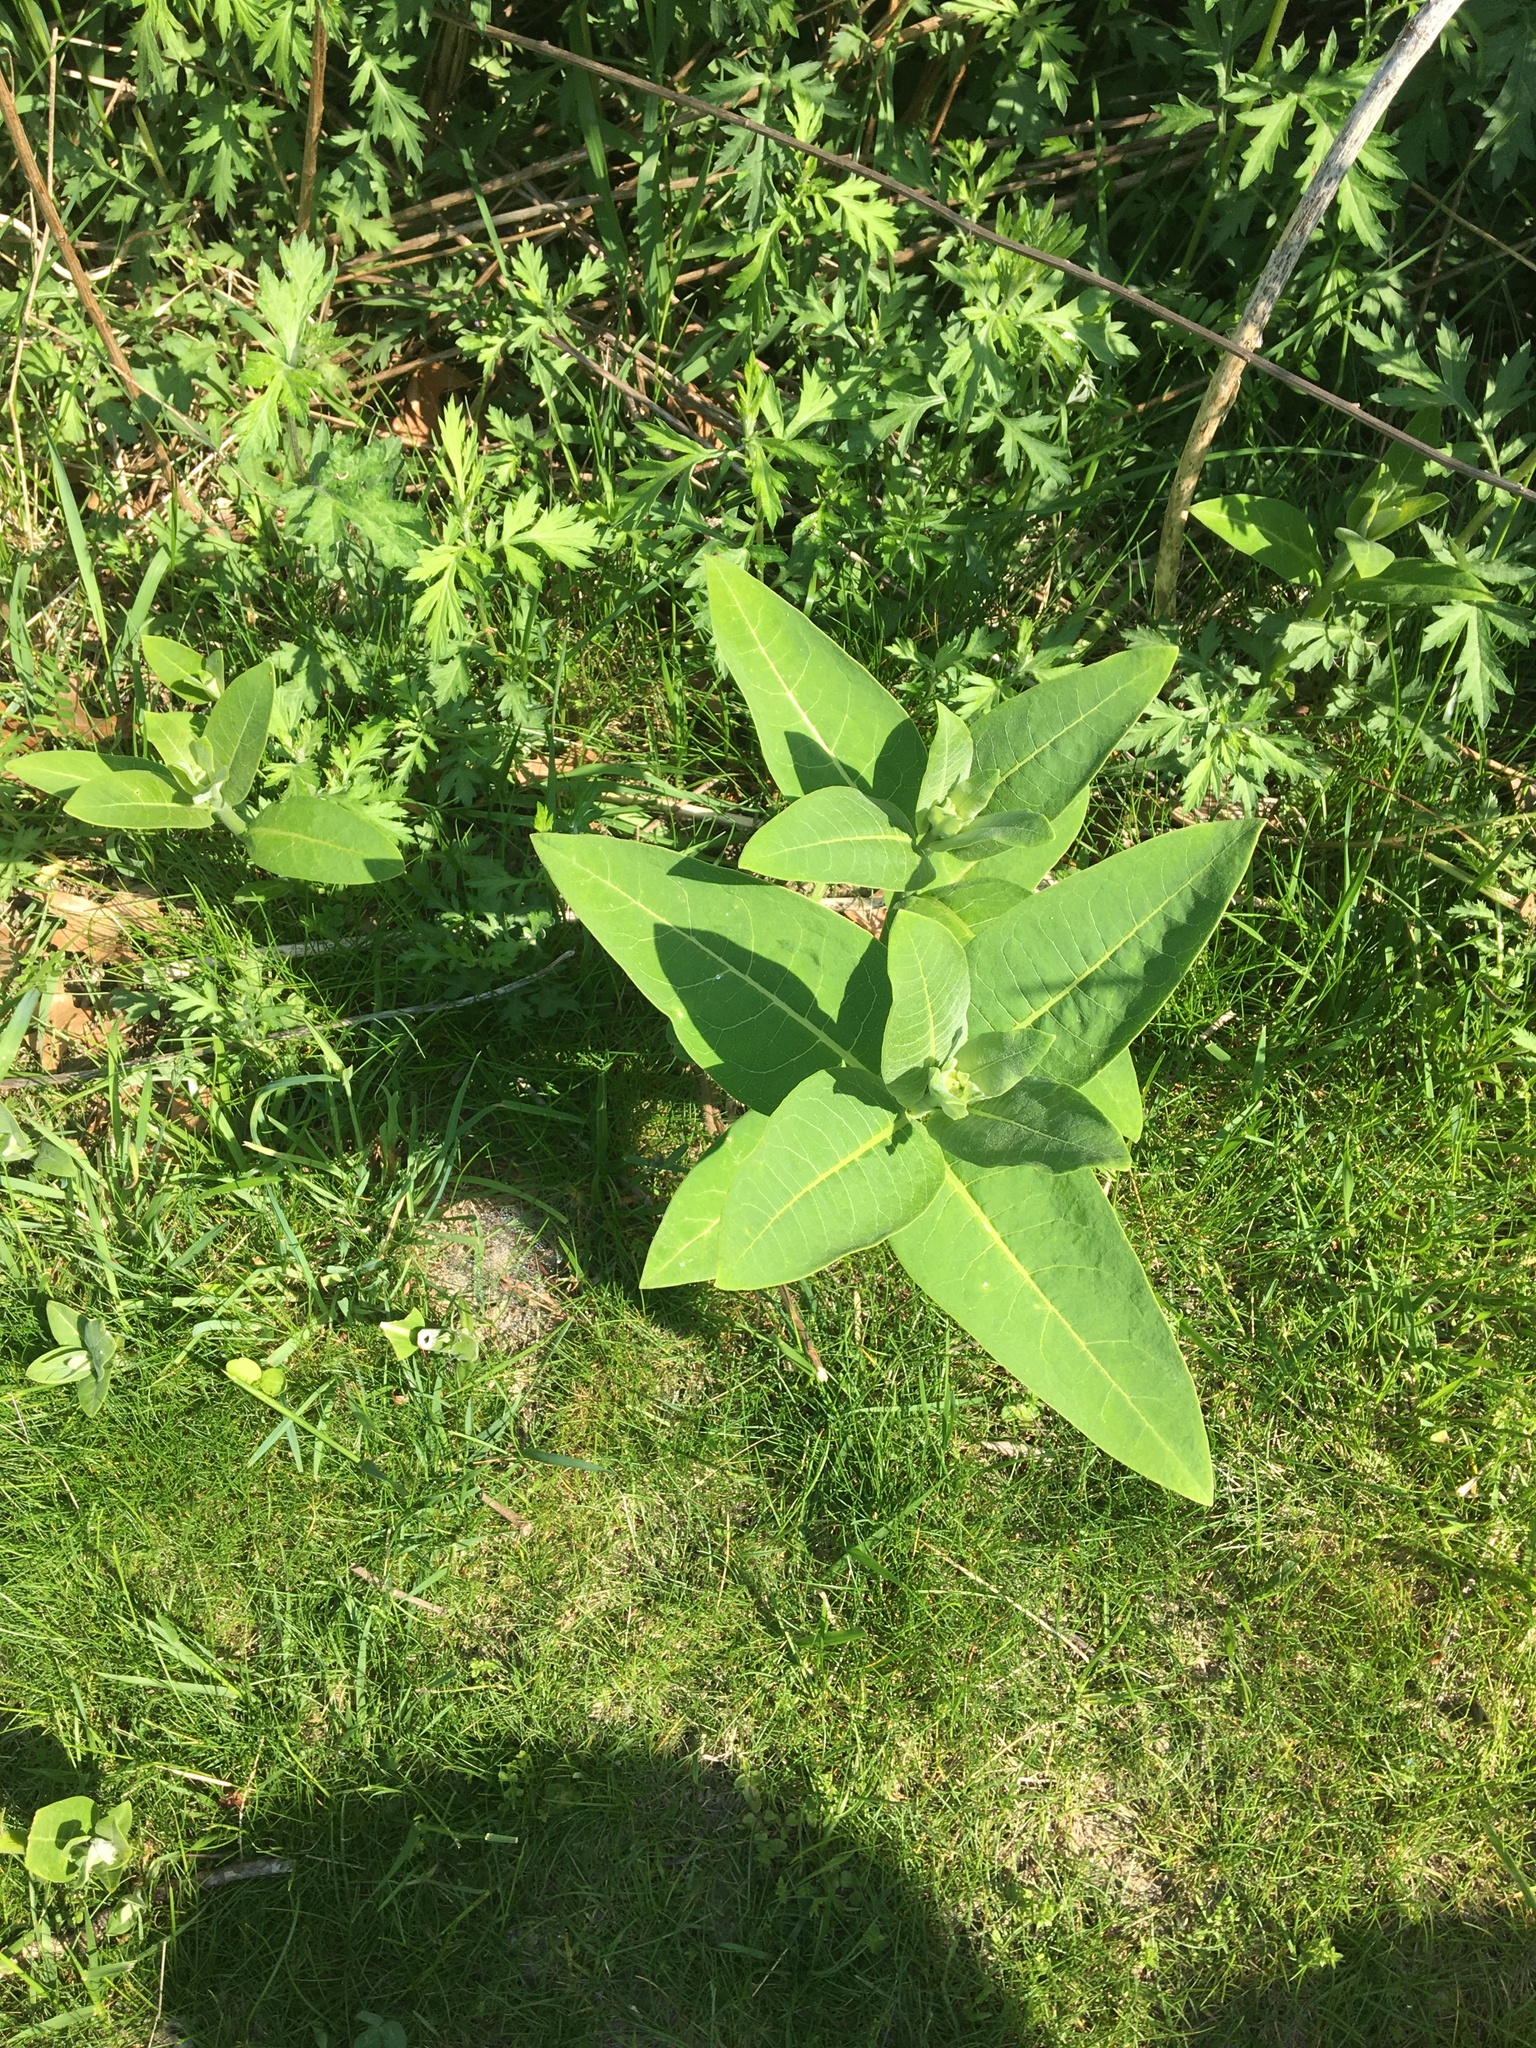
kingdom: Plantae
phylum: Tracheophyta
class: Magnoliopsida
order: Asterales
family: Asteraceae
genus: Artemisia
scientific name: Artemisia vulgaris
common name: Mugwort
